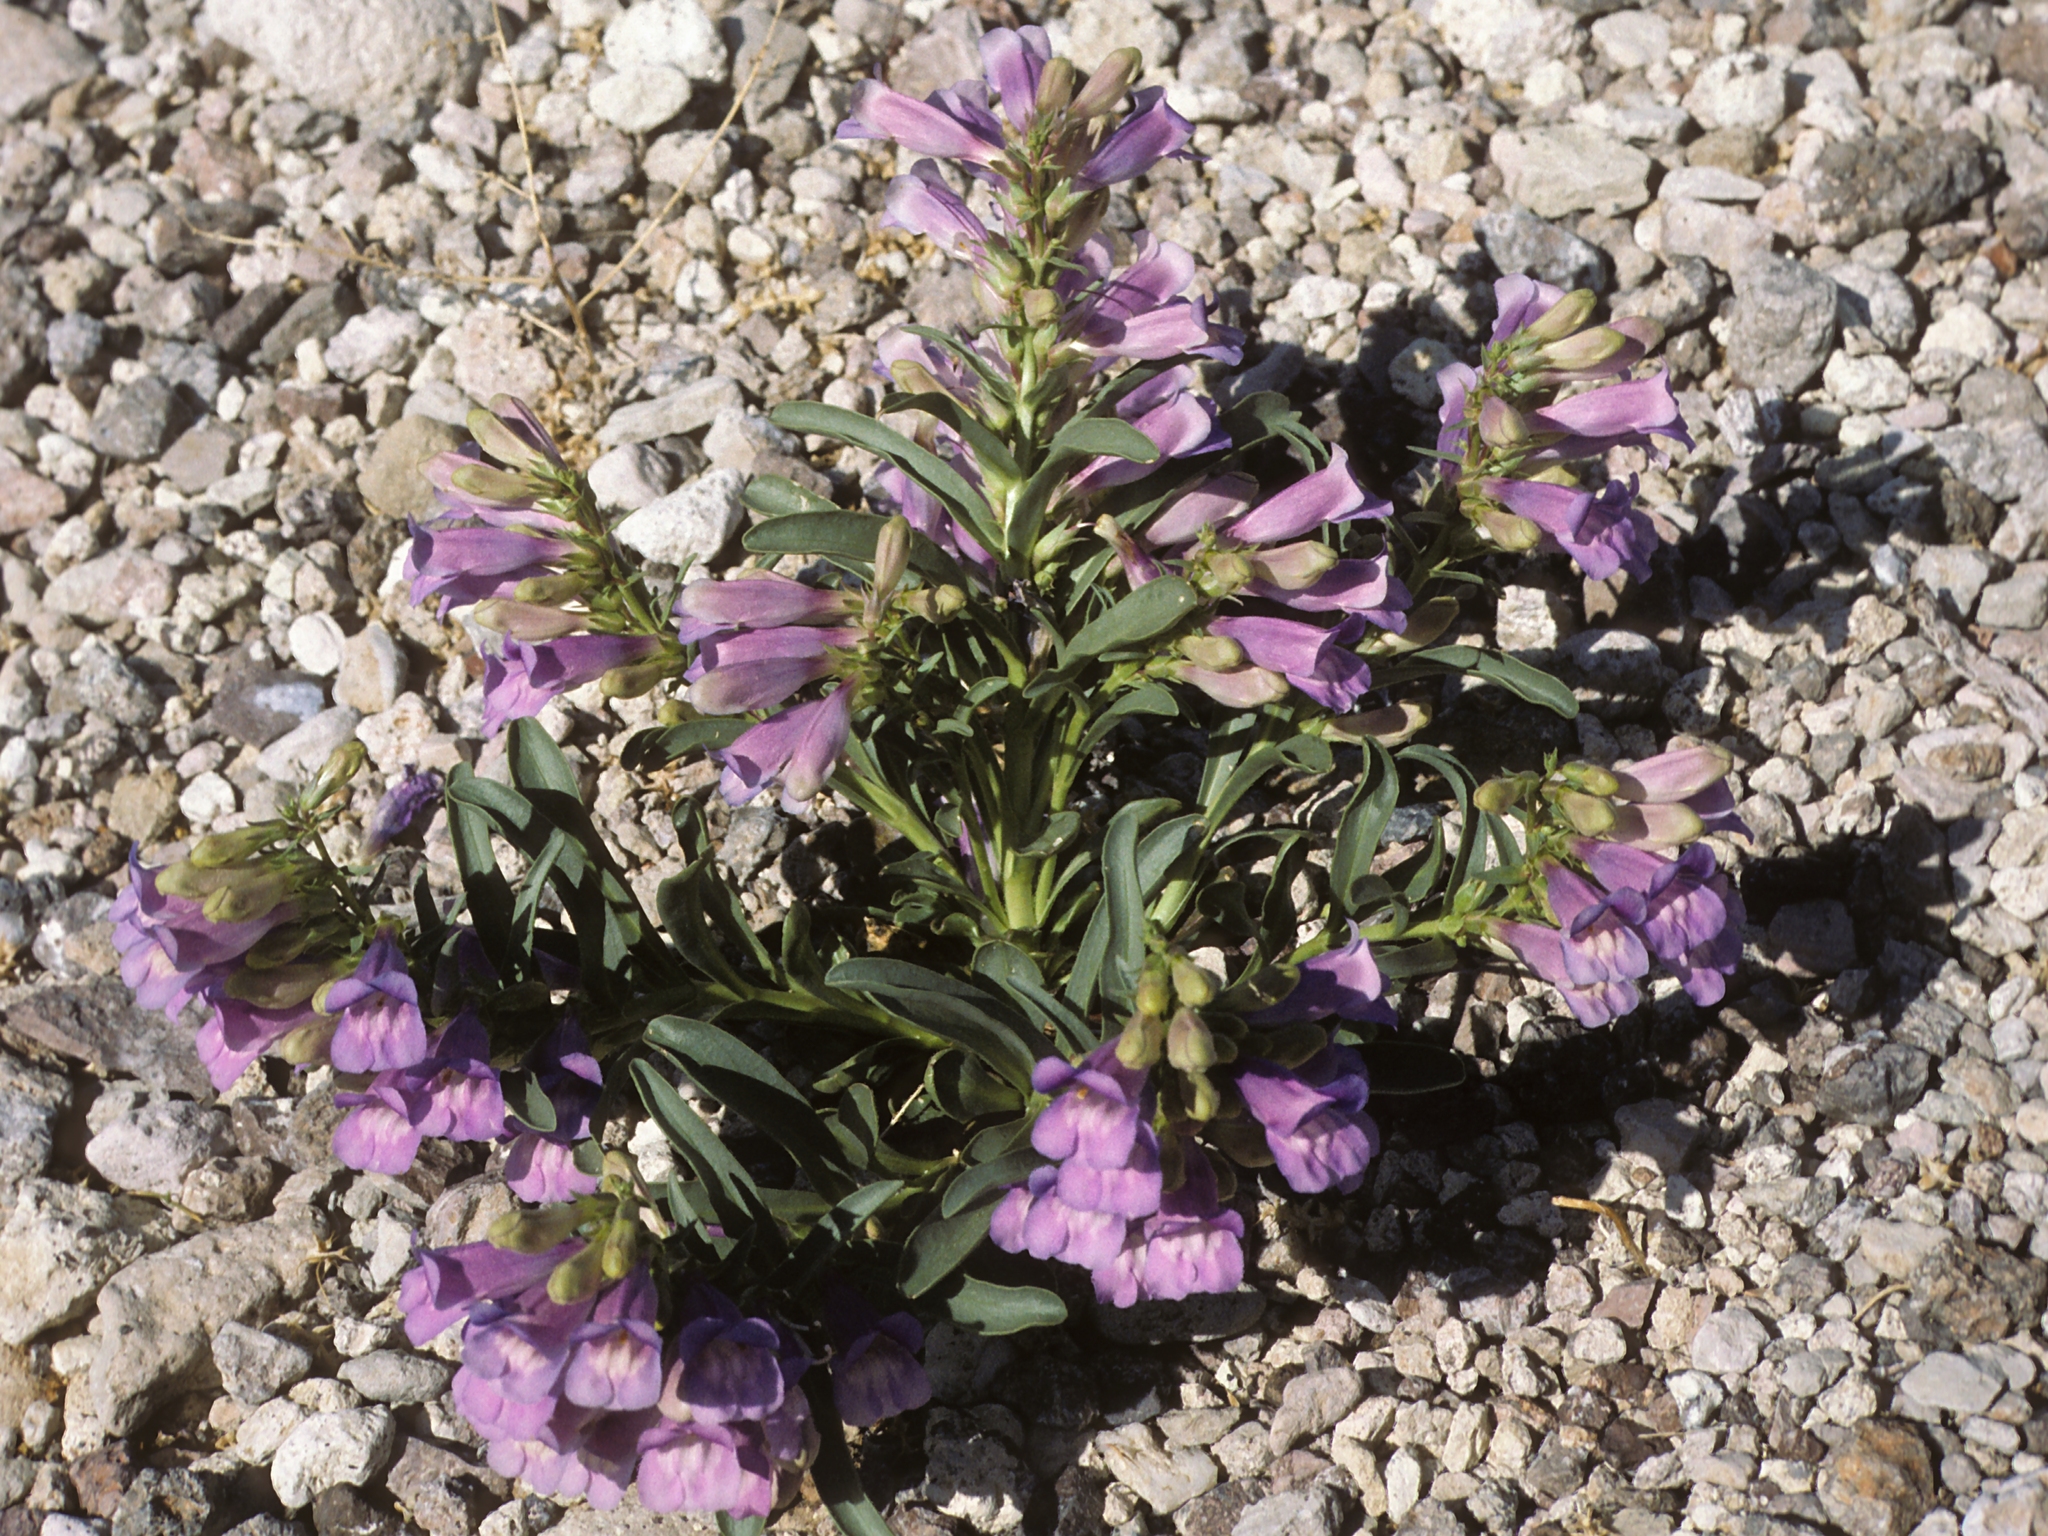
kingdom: Plantae
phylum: Tracheophyta
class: Magnoliopsida
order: Lamiales
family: Plantaginaceae
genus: Penstemon
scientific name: Penstemon speciosus
